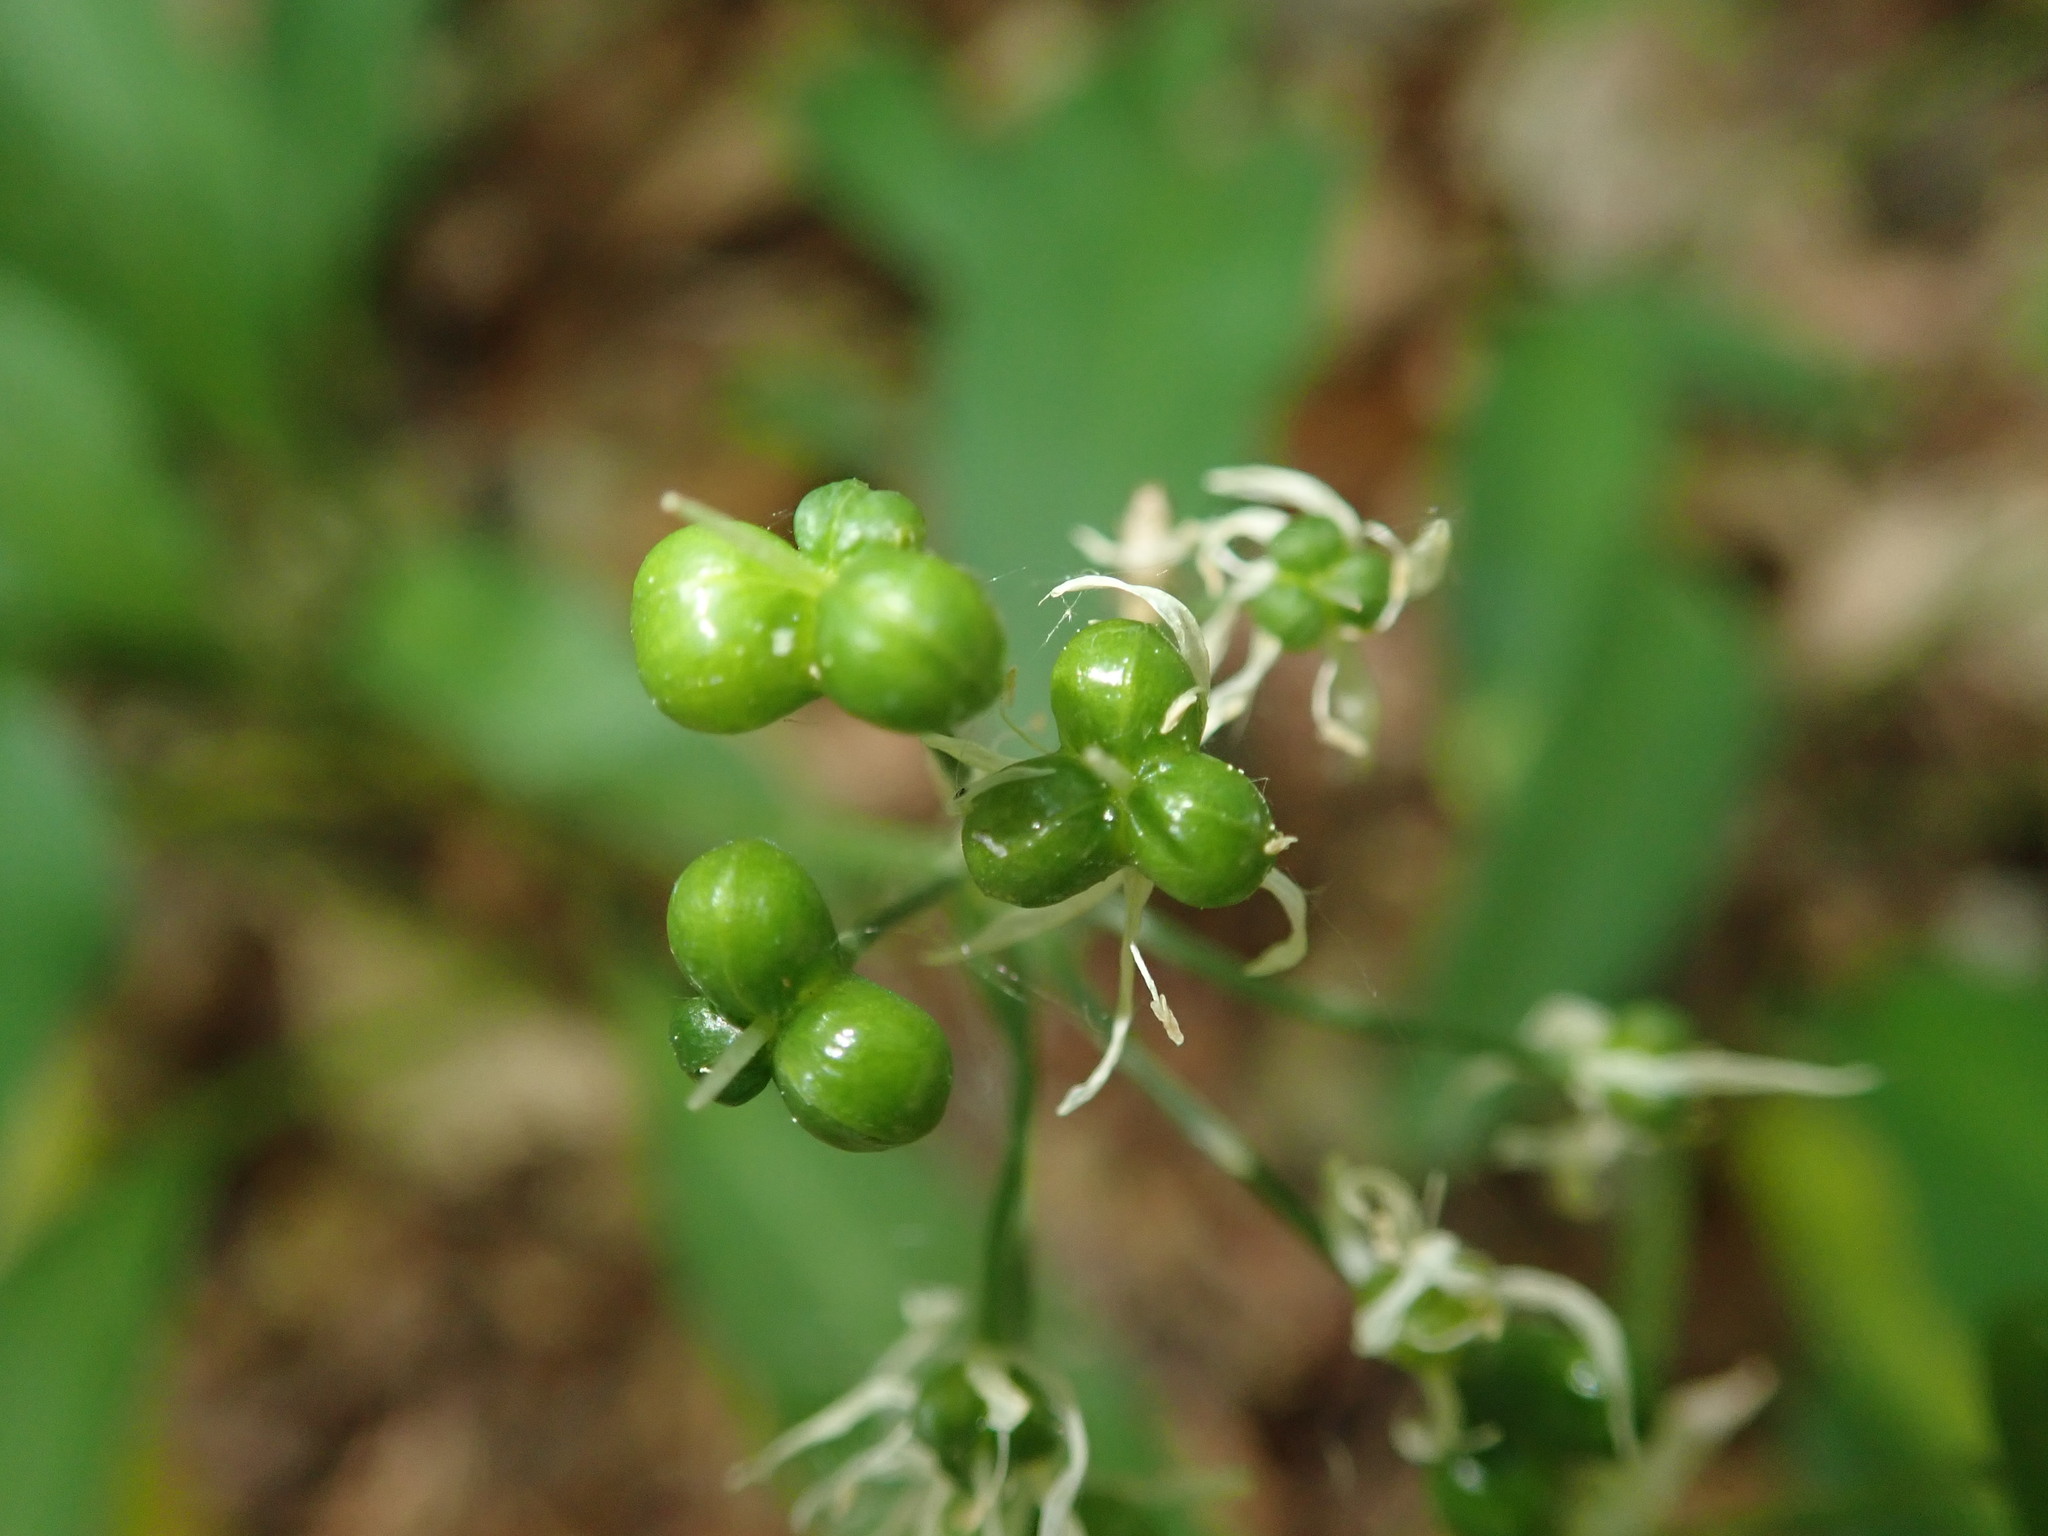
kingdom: Plantae
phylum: Tracheophyta
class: Liliopsida
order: Asparagales
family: Amaryllidaceae
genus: Allium
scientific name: Allium ursinum
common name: Ramsons
